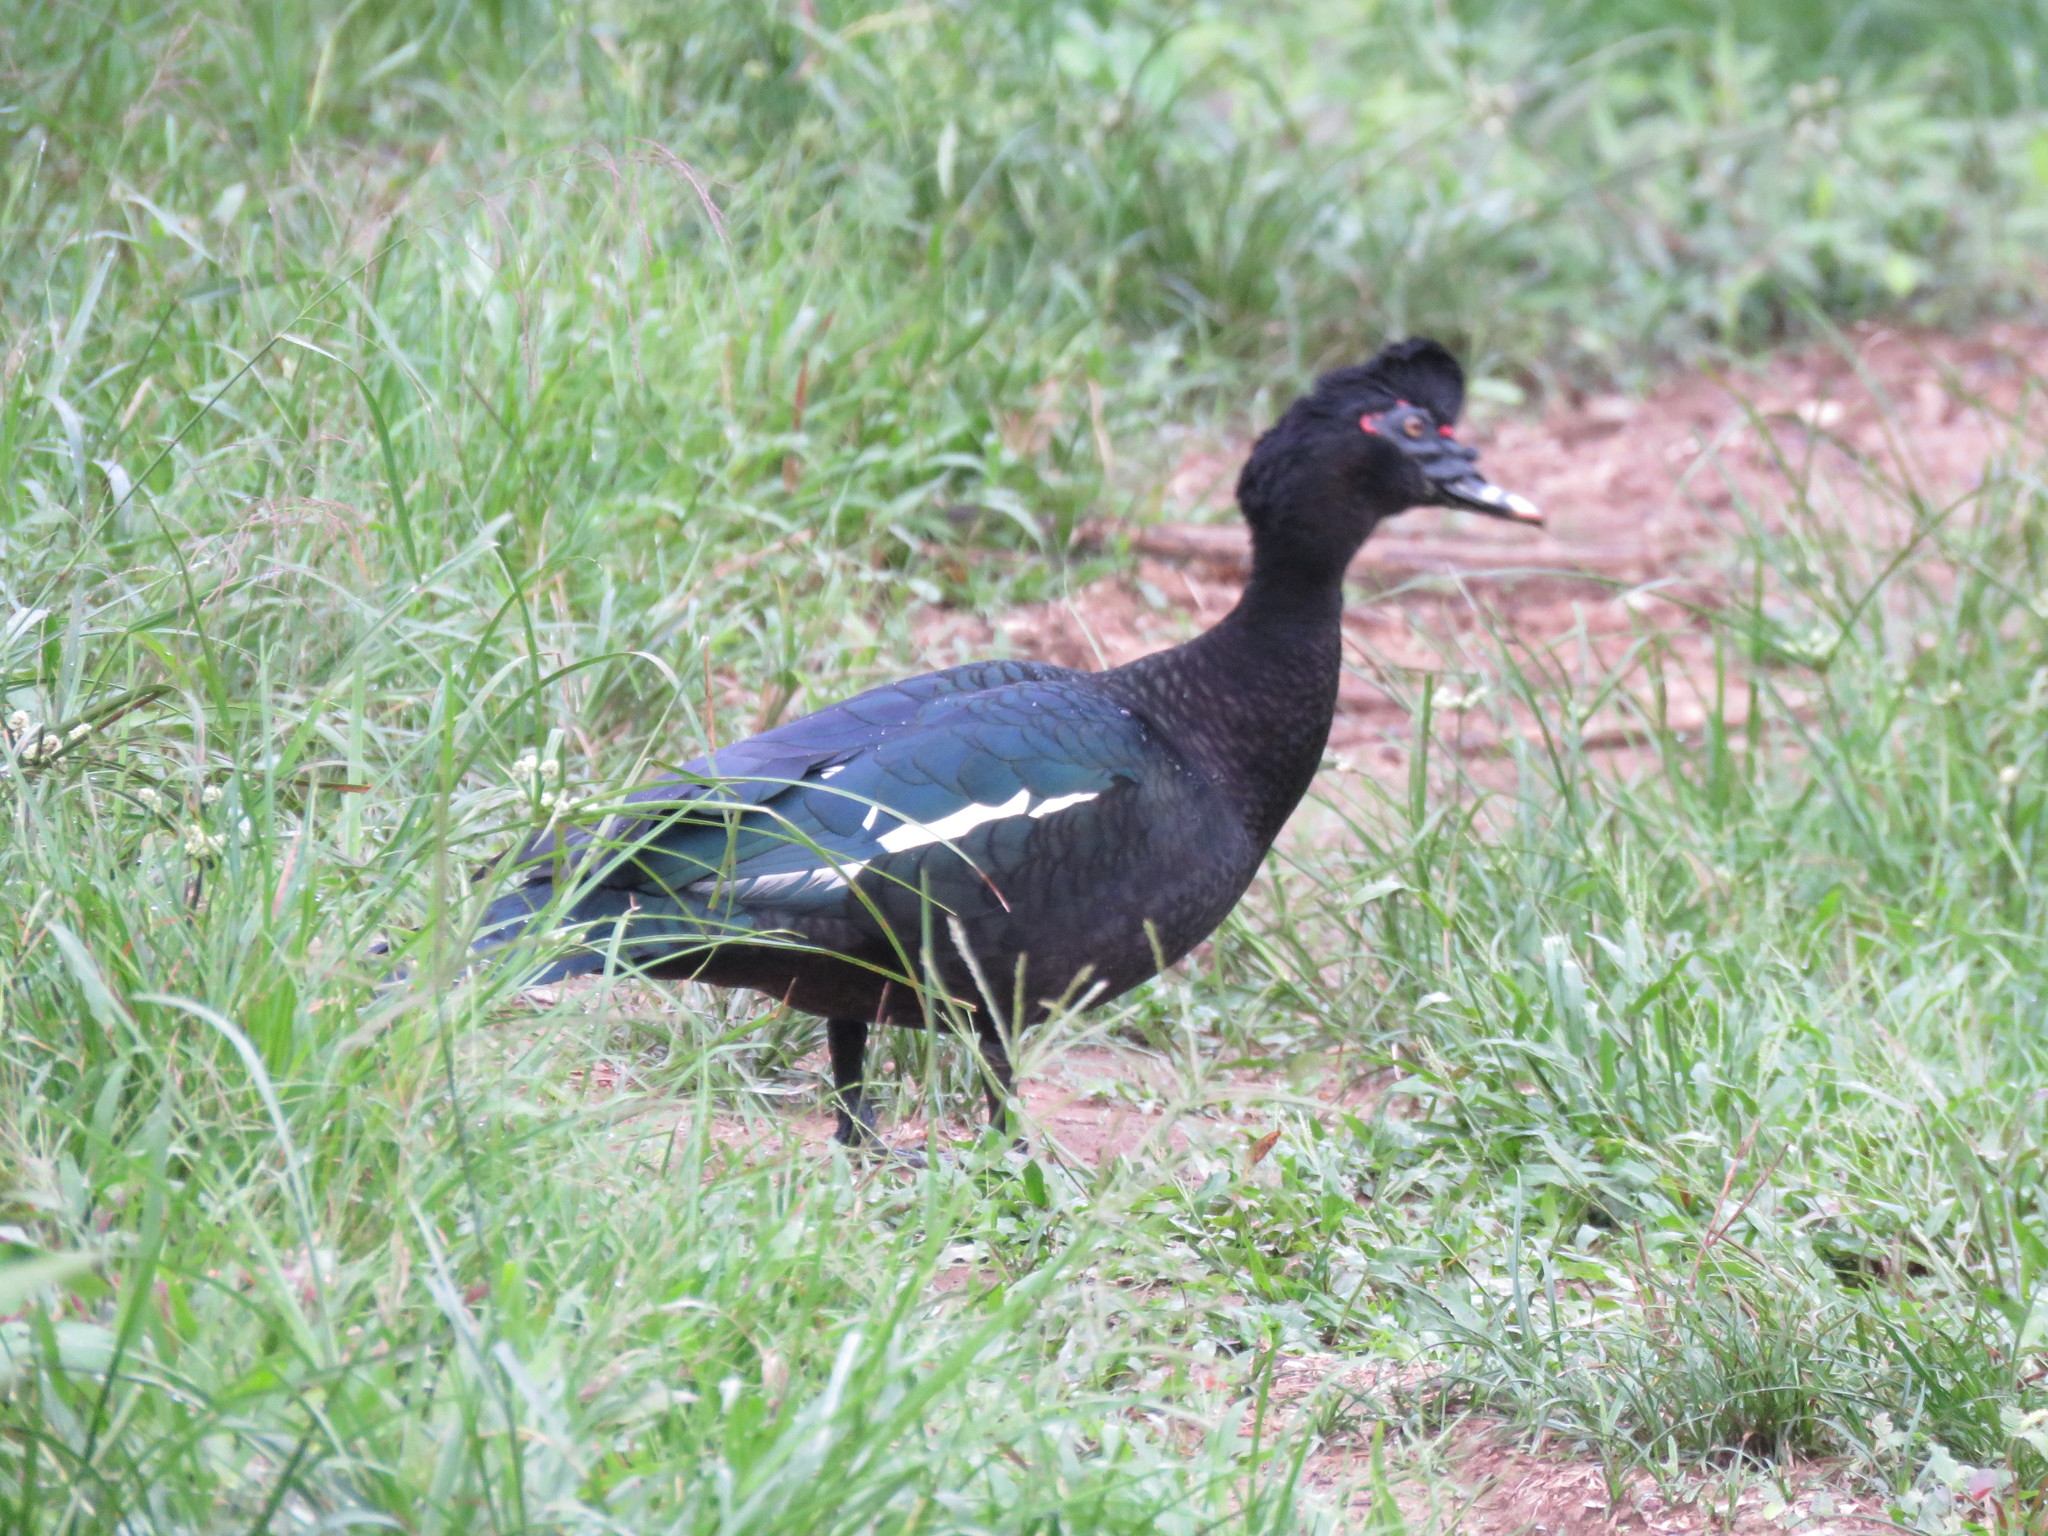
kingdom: Animalia
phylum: Chordata
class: Aves
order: Anseriformes
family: Anatidae
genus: Cairina
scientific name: Cairina moschata
